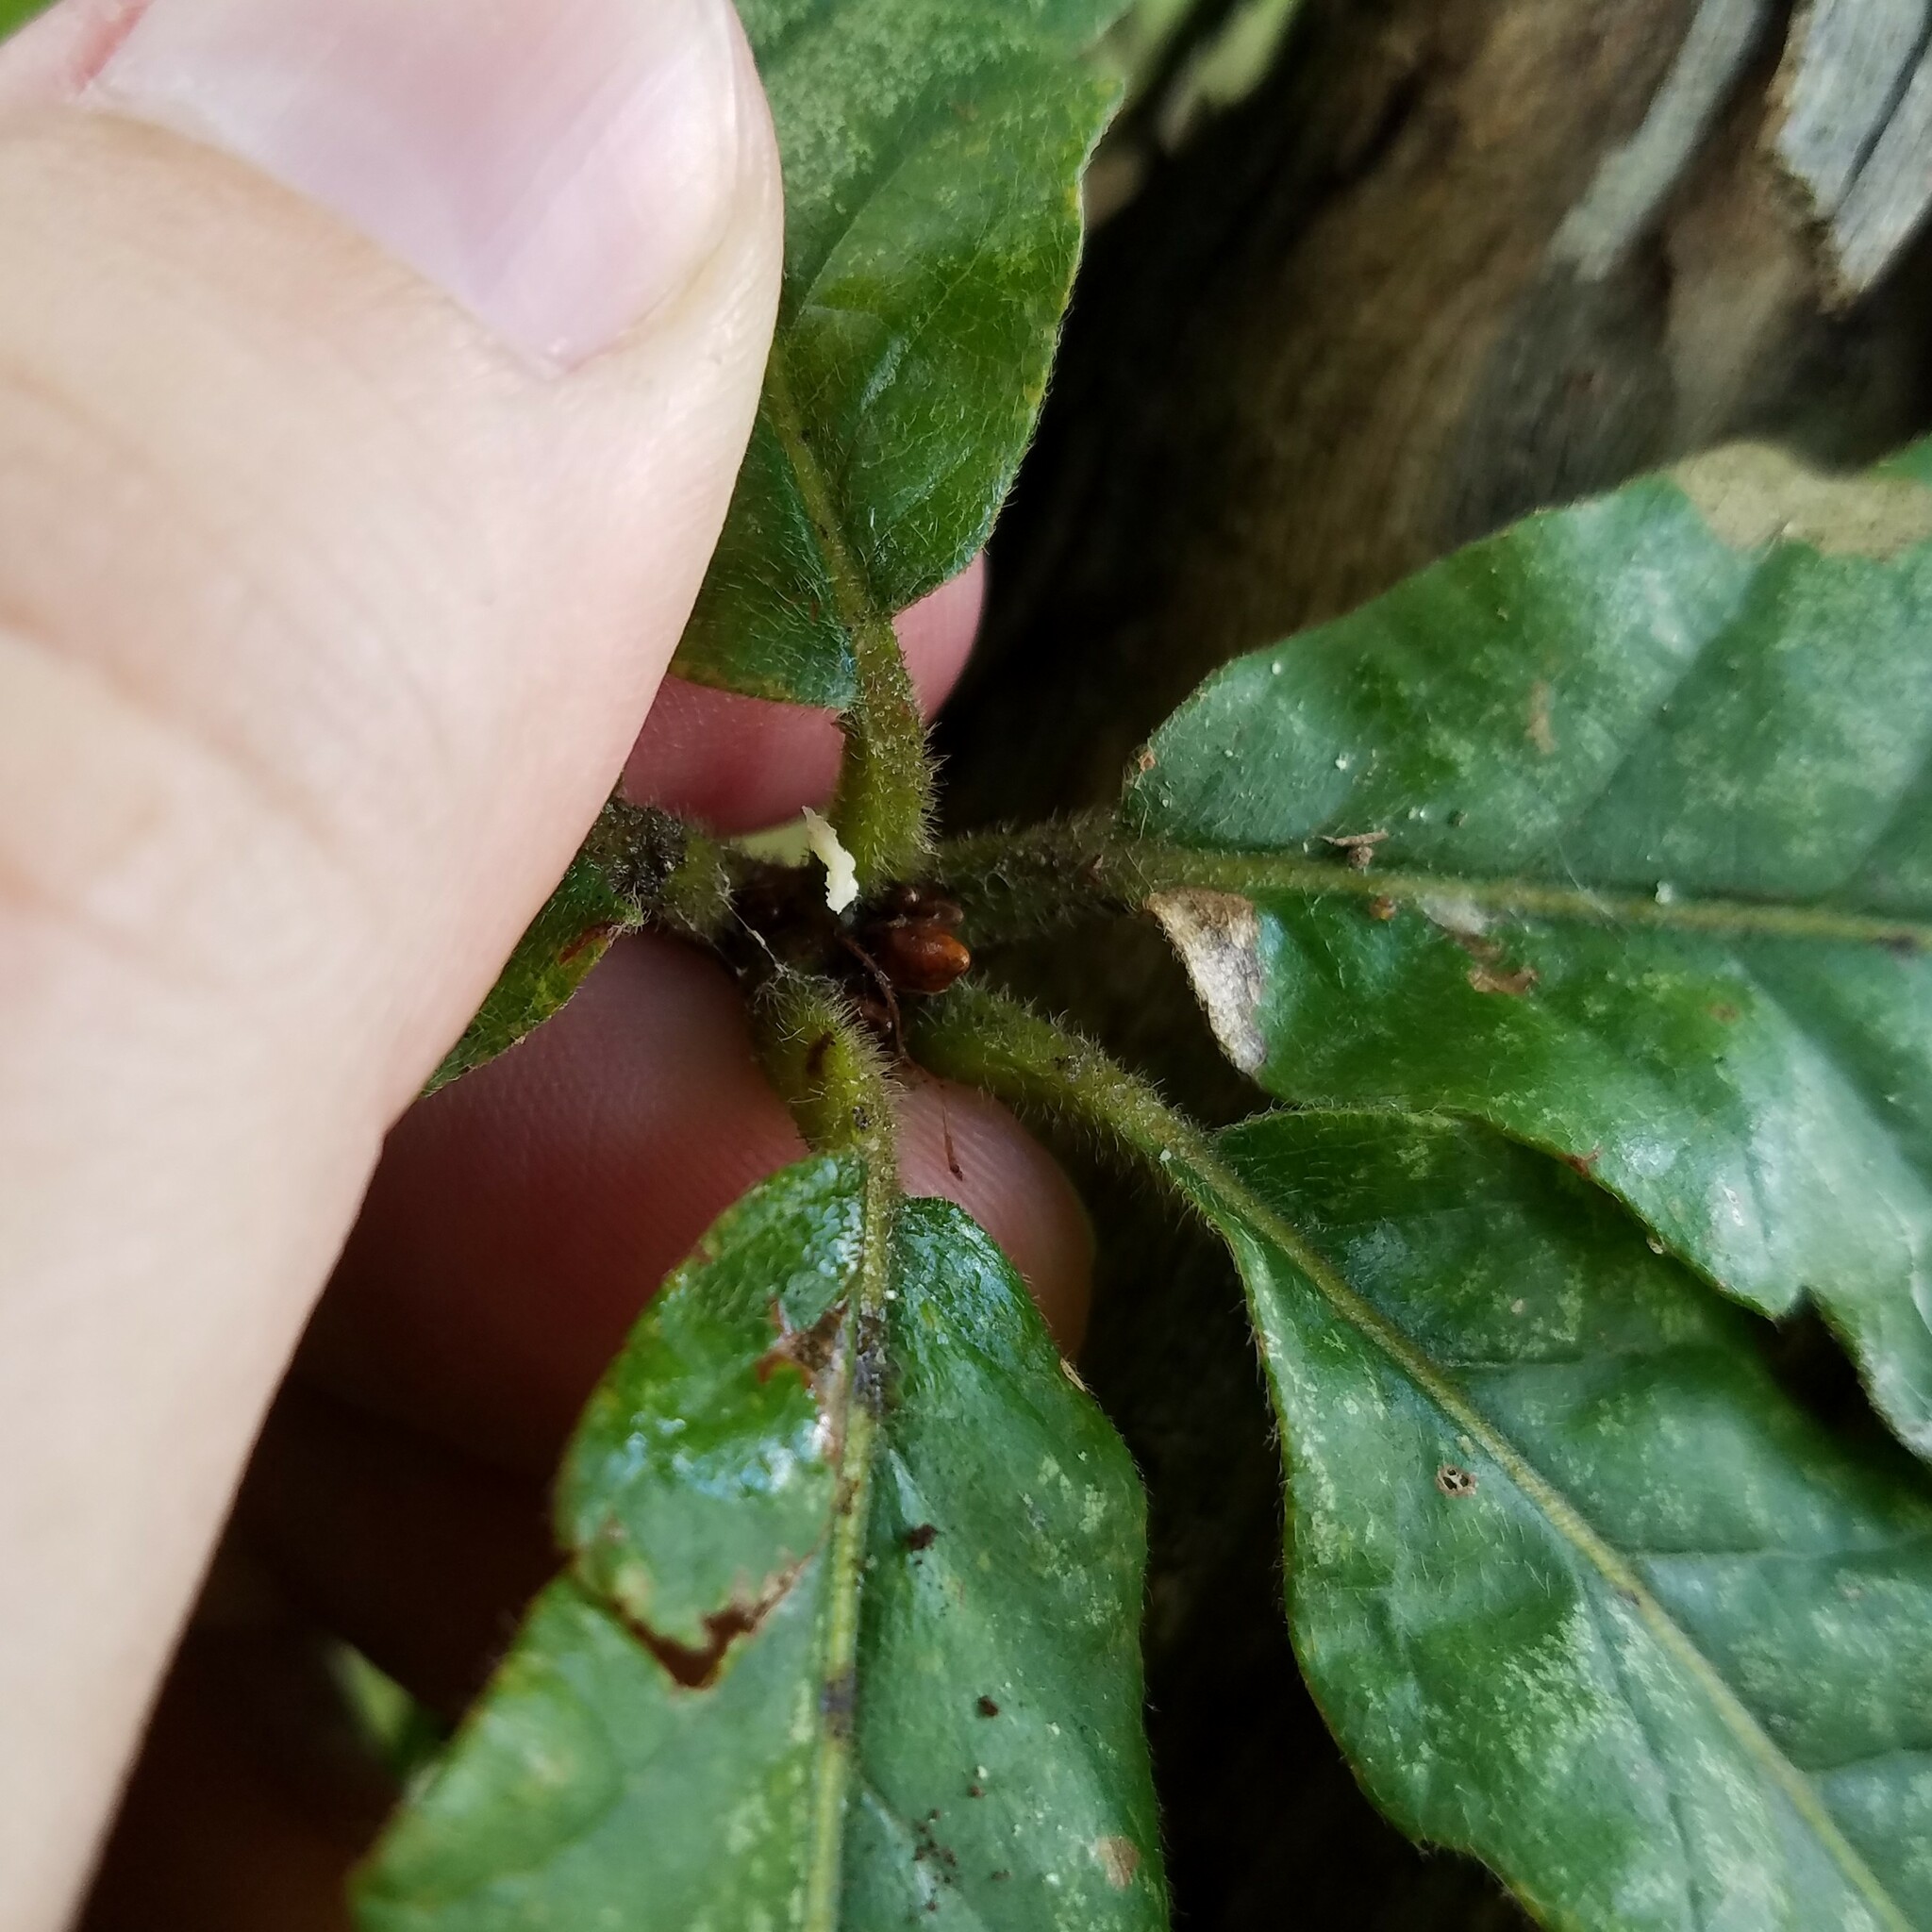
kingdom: Plantae
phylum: Tracheophyta
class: Magnoliopsida
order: Fagales
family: Fagaceae
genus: Quercus
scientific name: Quercus michauxii
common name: Swamp chestnut oak
